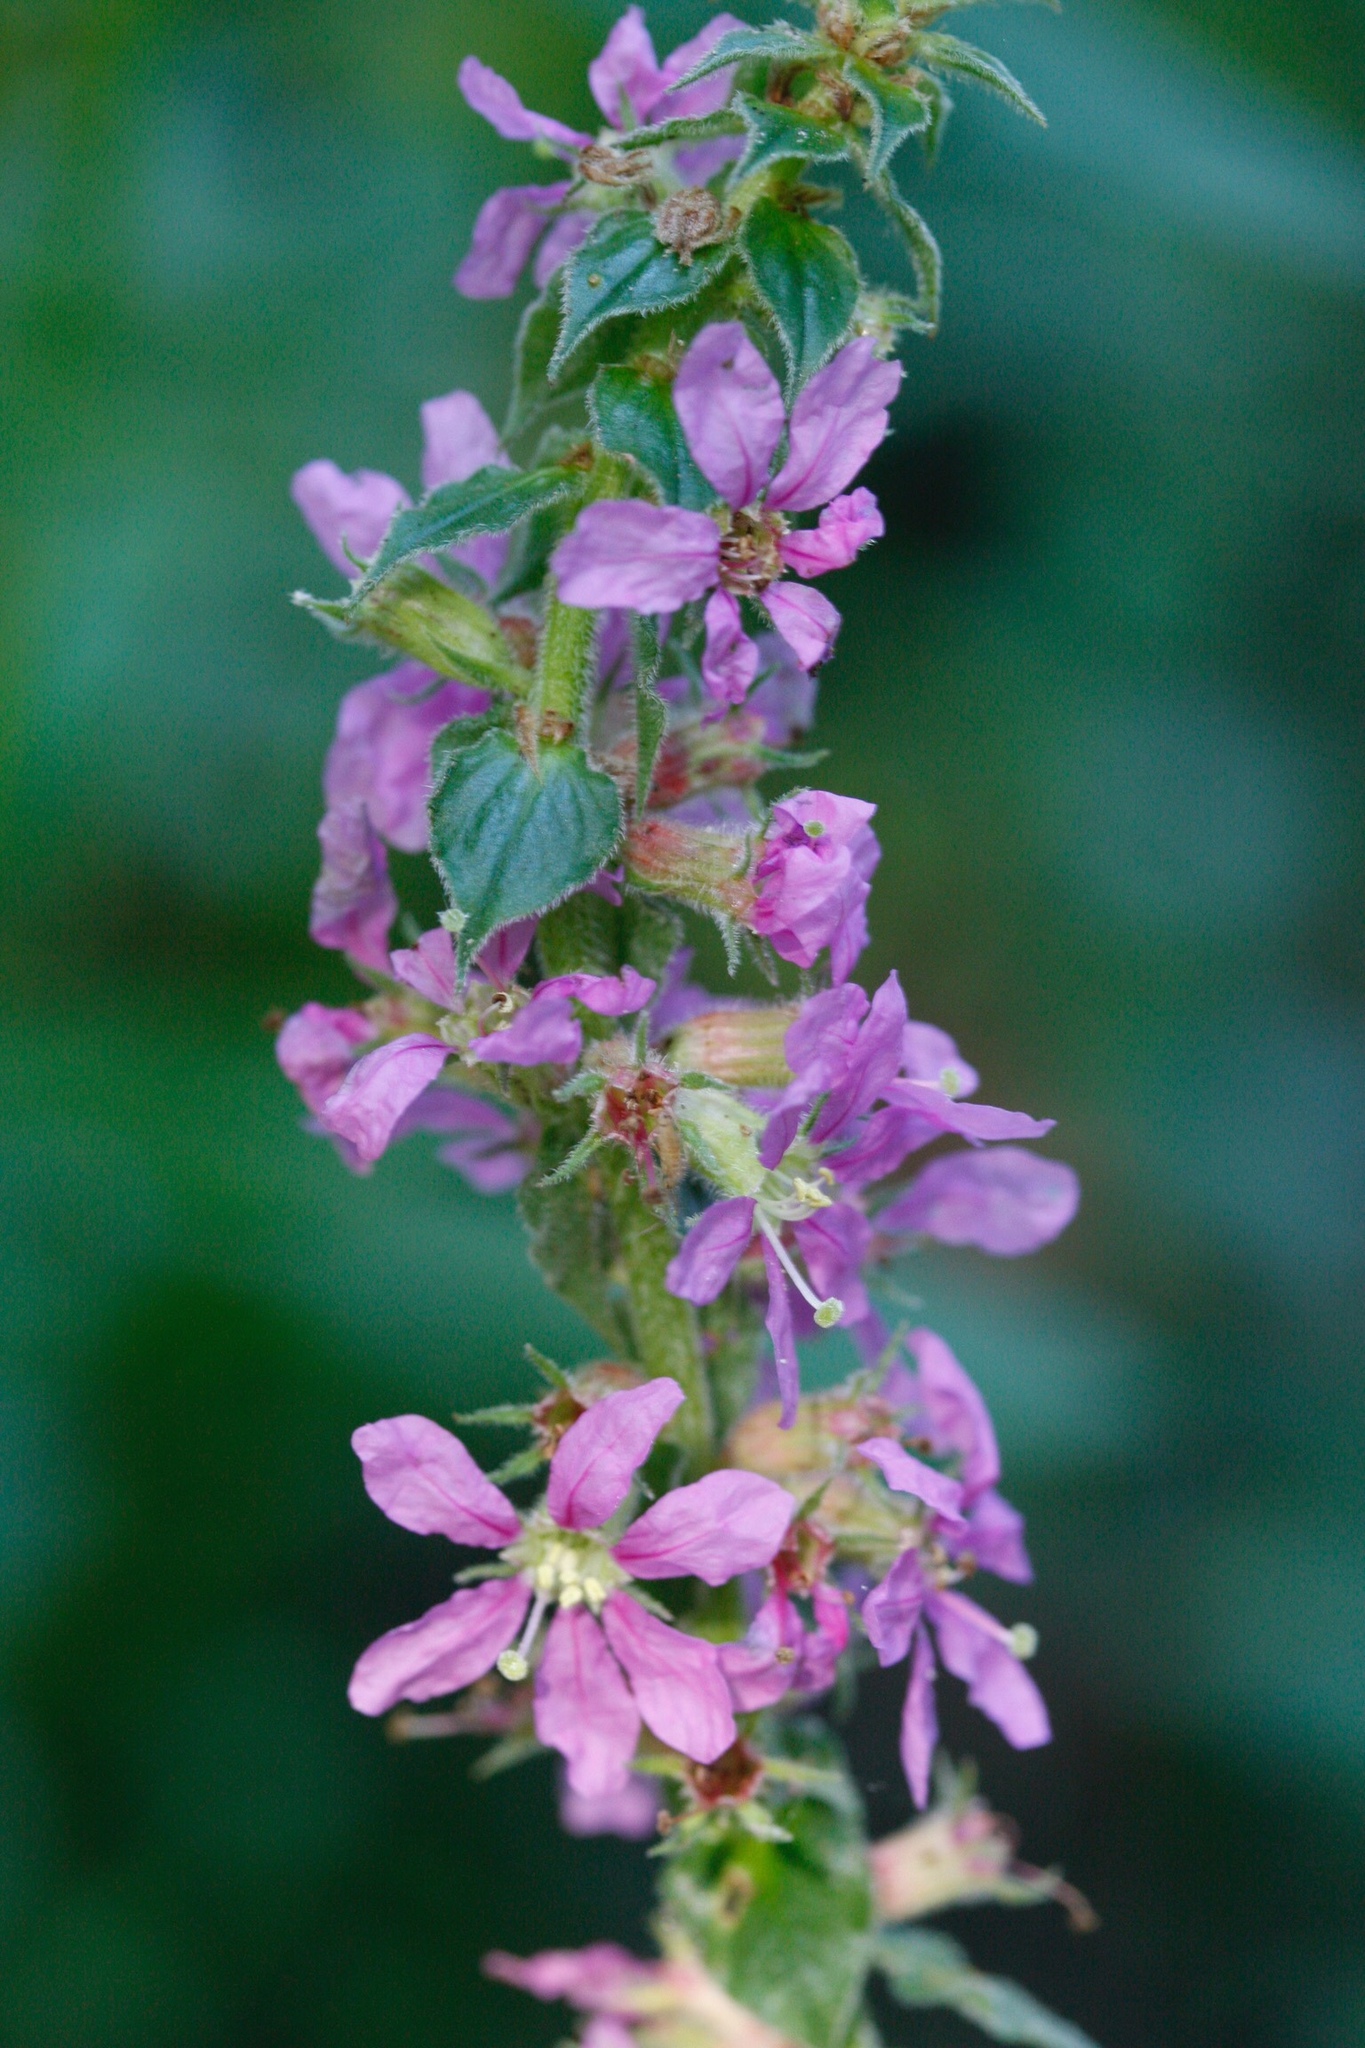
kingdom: Plantae
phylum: Tracheophyta
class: Magnoliopsida
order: Myrtales
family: Lythraceae
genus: Lythrum
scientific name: Lythrum salicaria
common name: Purple loosestrife
